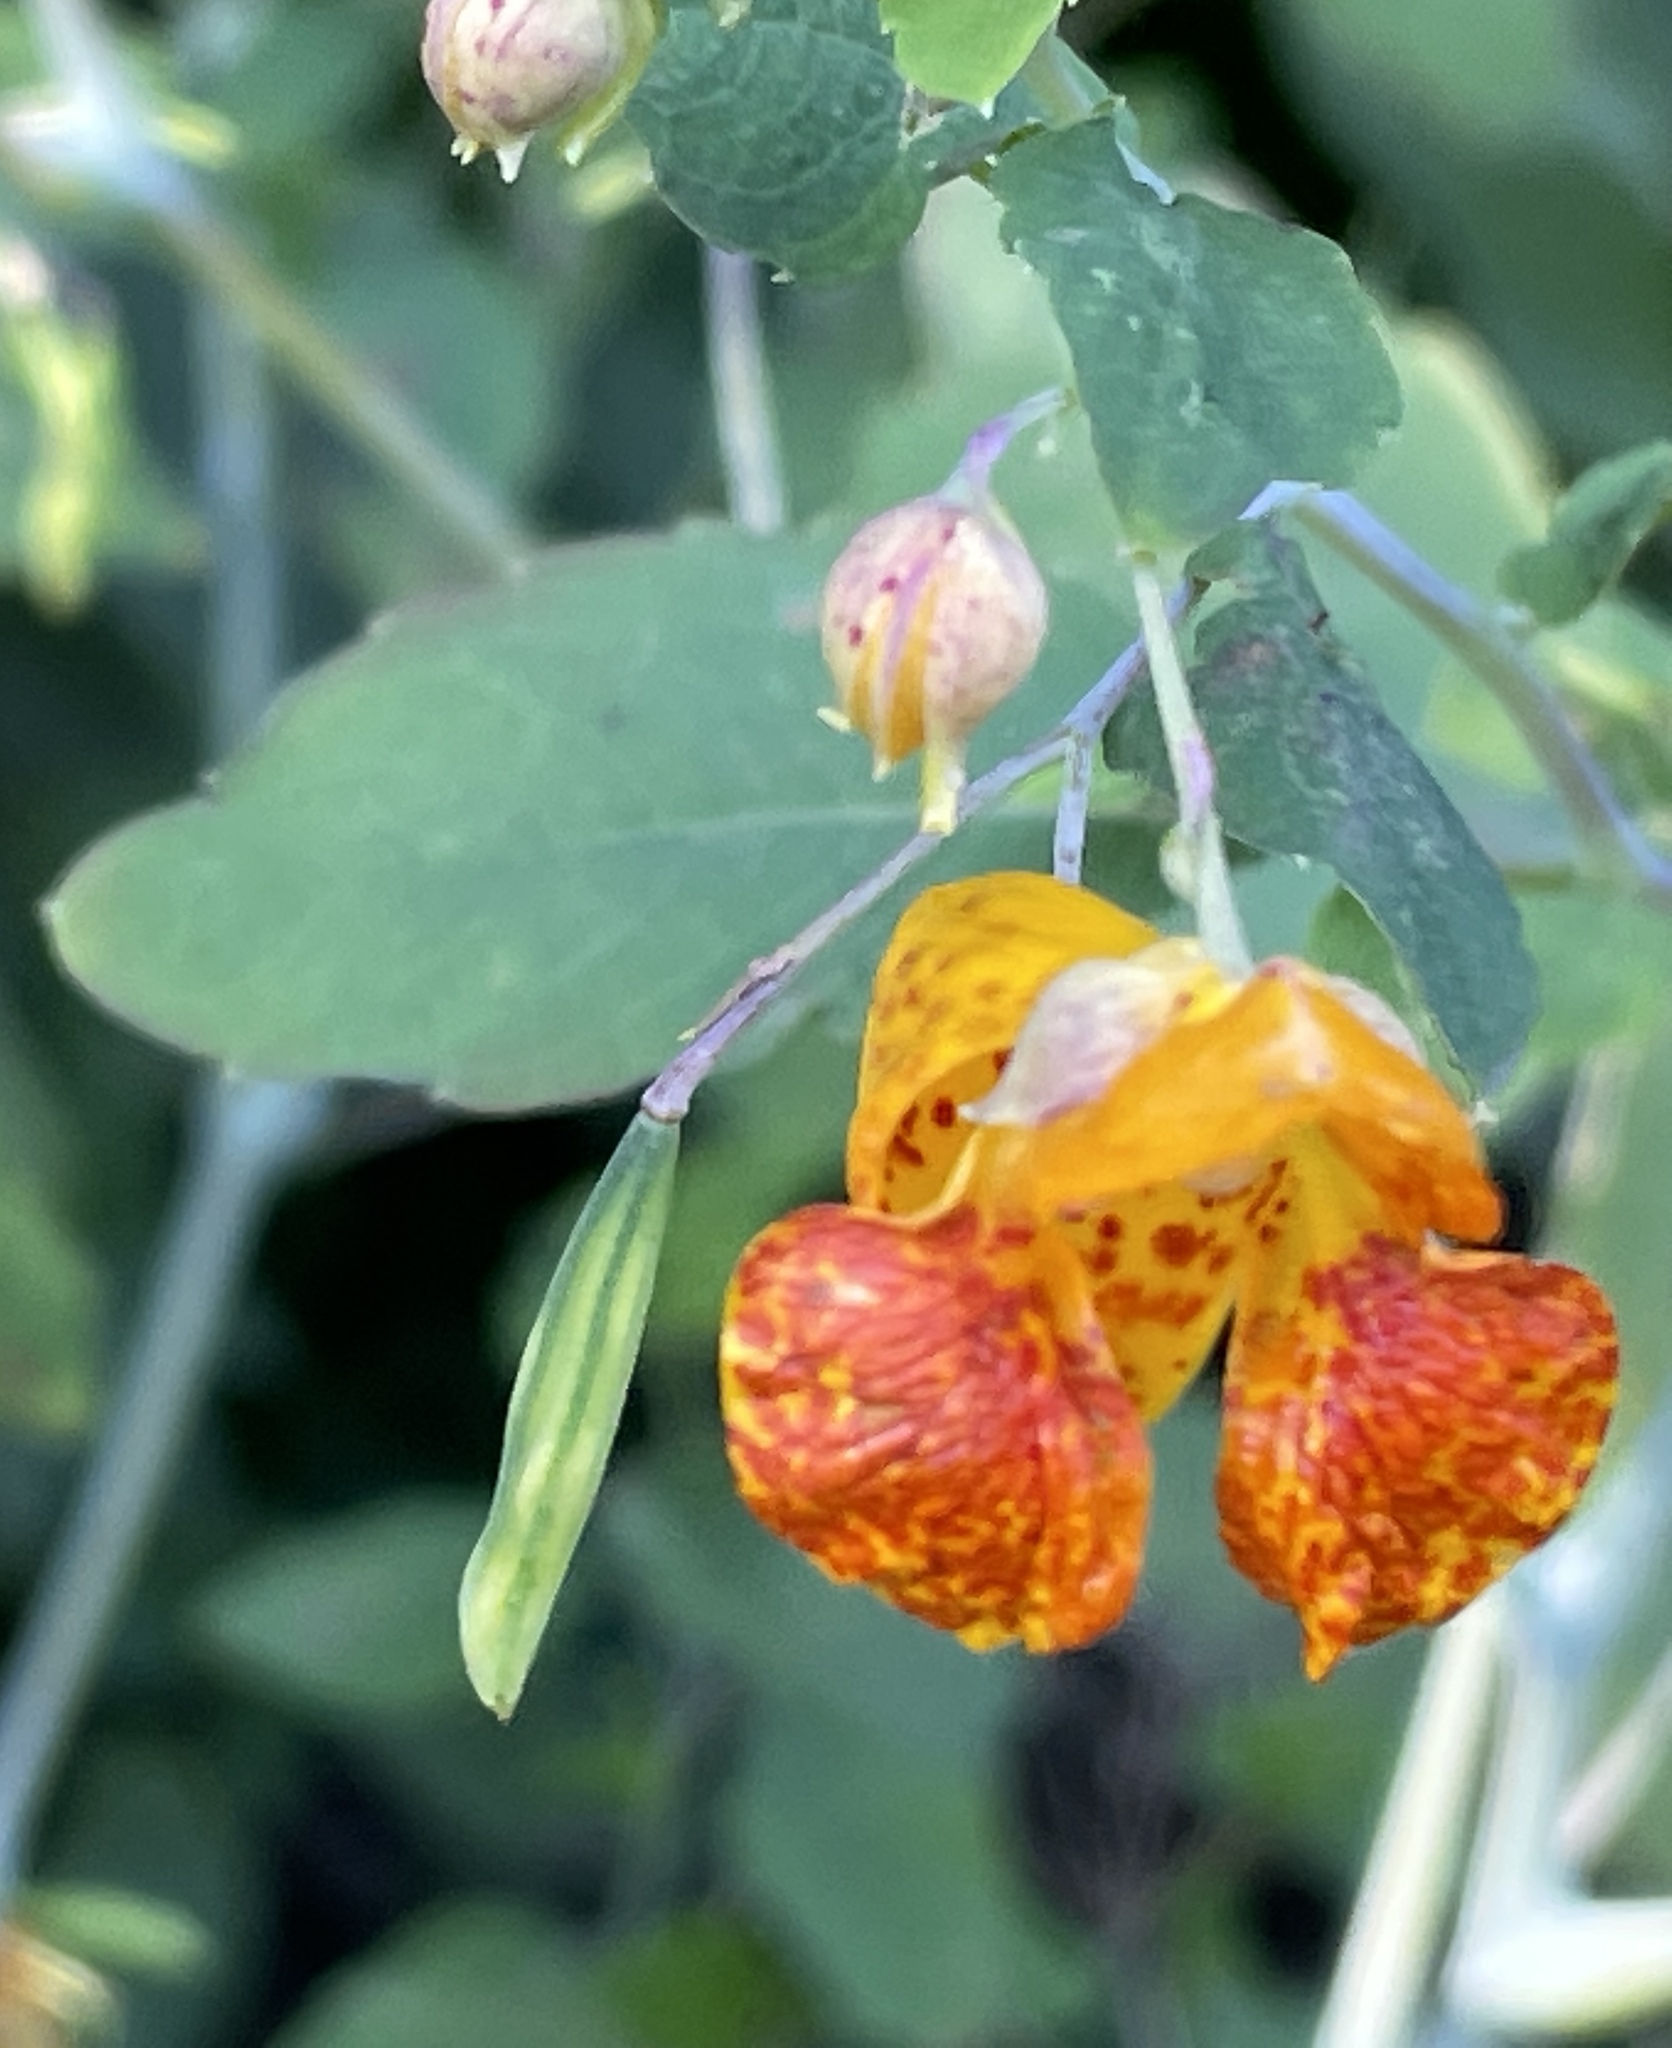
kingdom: Plantae
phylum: Tracheophyta
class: Magnoliopsida
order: Ericales
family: Balsaminaceae
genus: Impatiens
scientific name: Impatiens capensis
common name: Orange balsam
